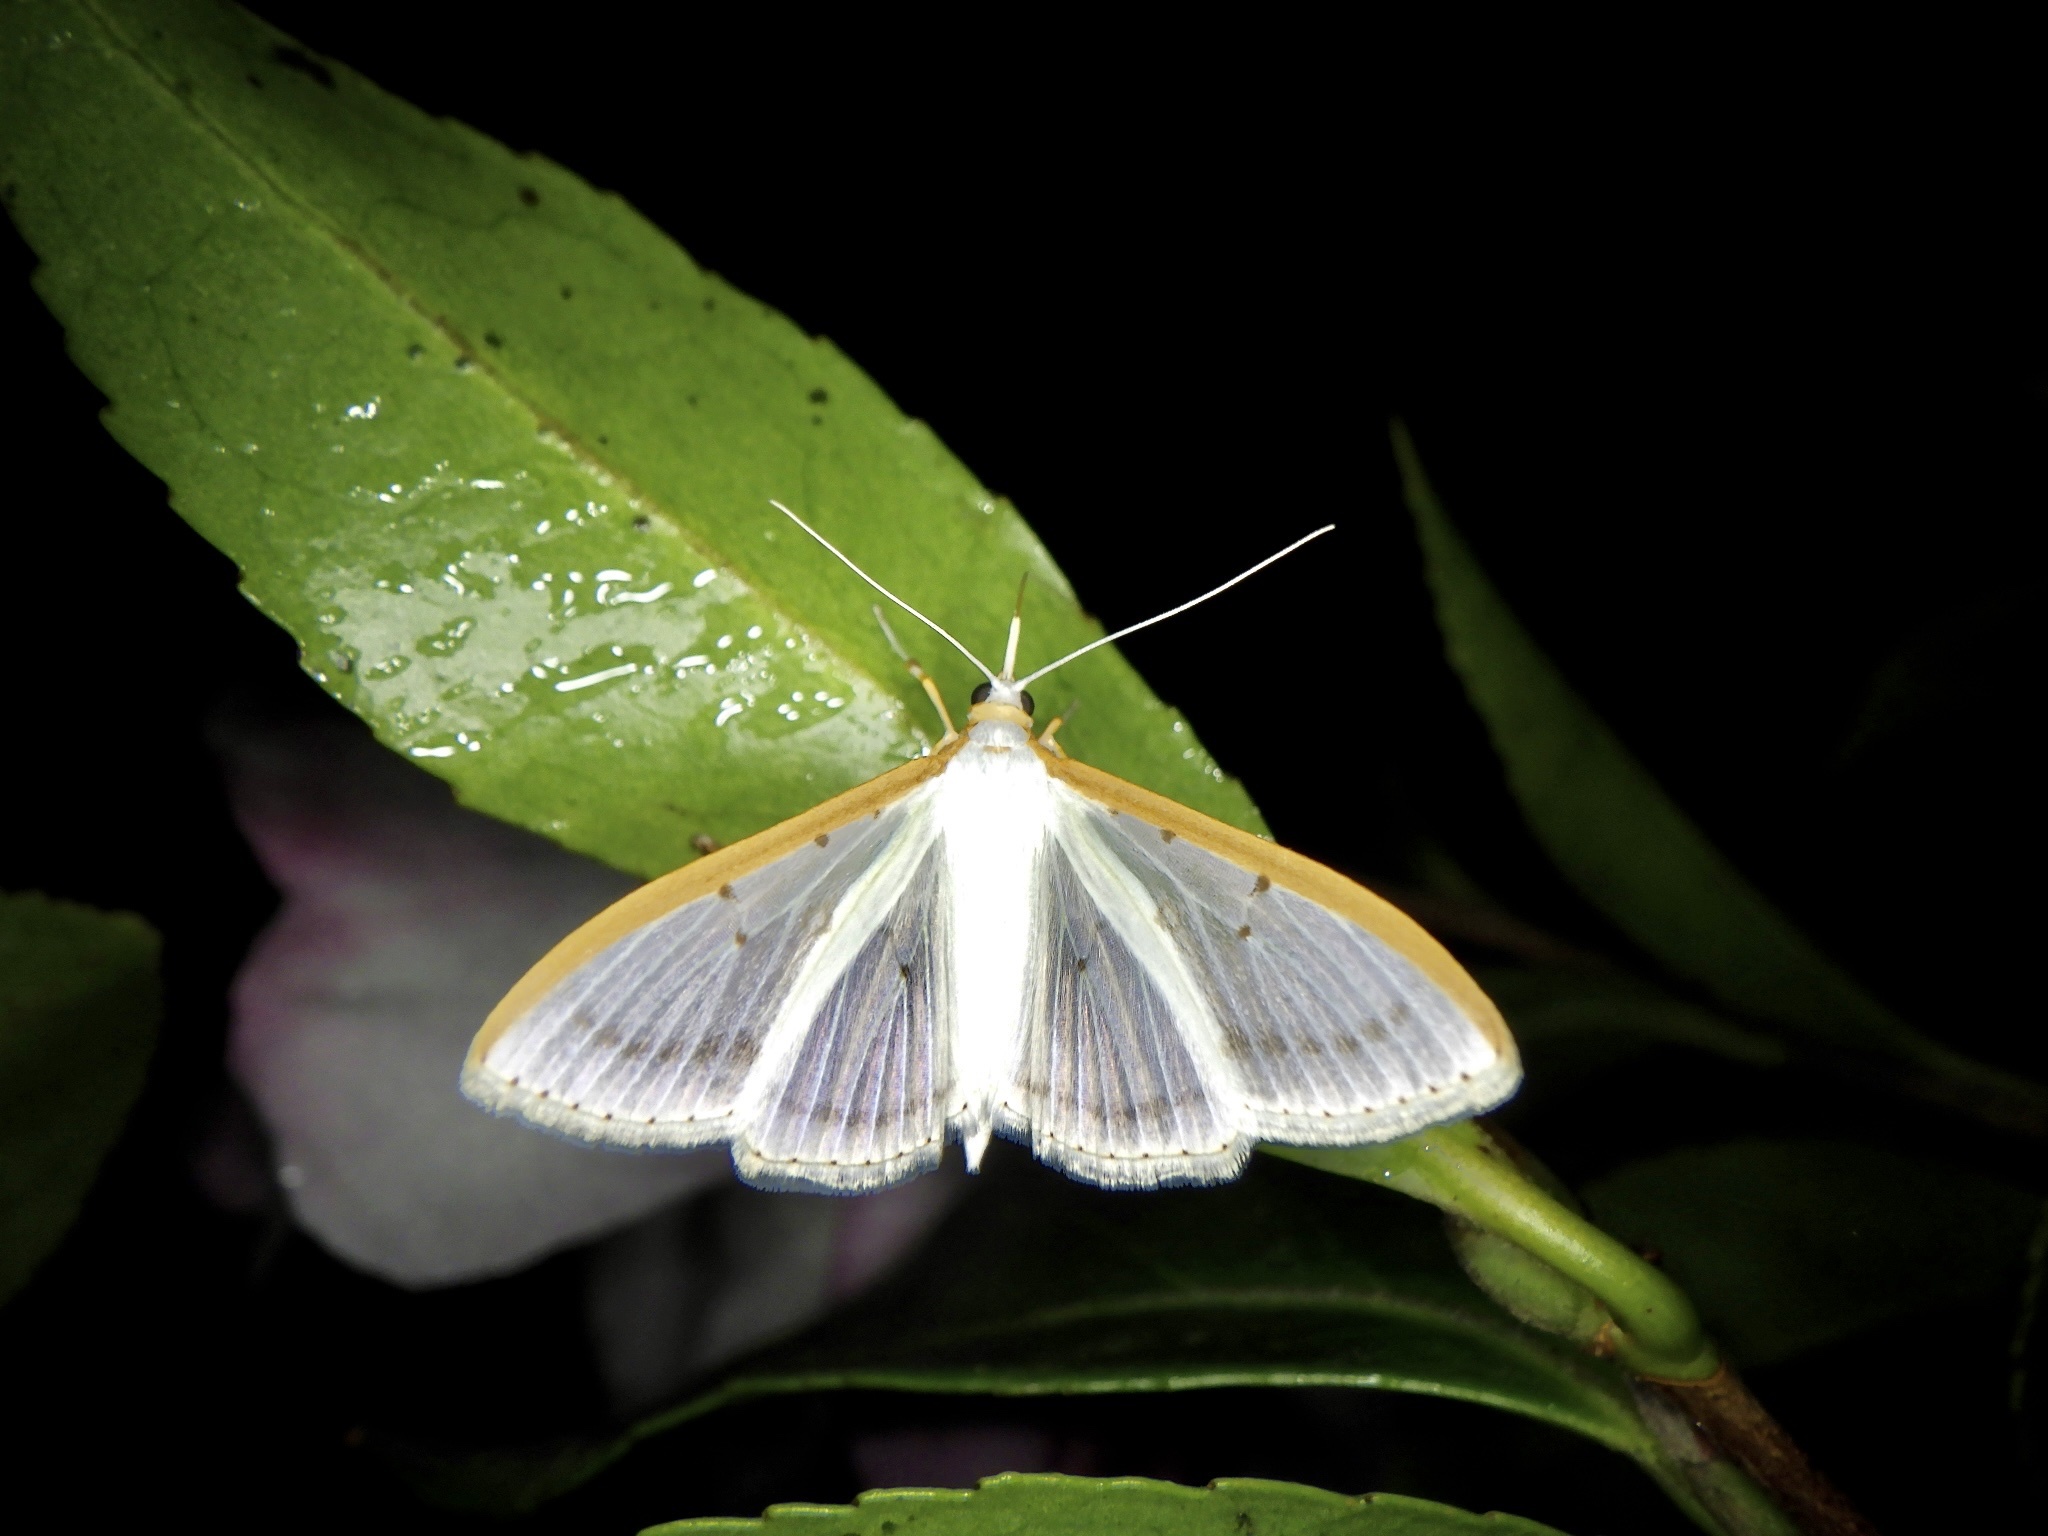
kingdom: Animalia
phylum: Arthropoda
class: Insecta
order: Lepidoptera
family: Crambidae
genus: Palpita
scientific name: Palpita nigropunctalis
